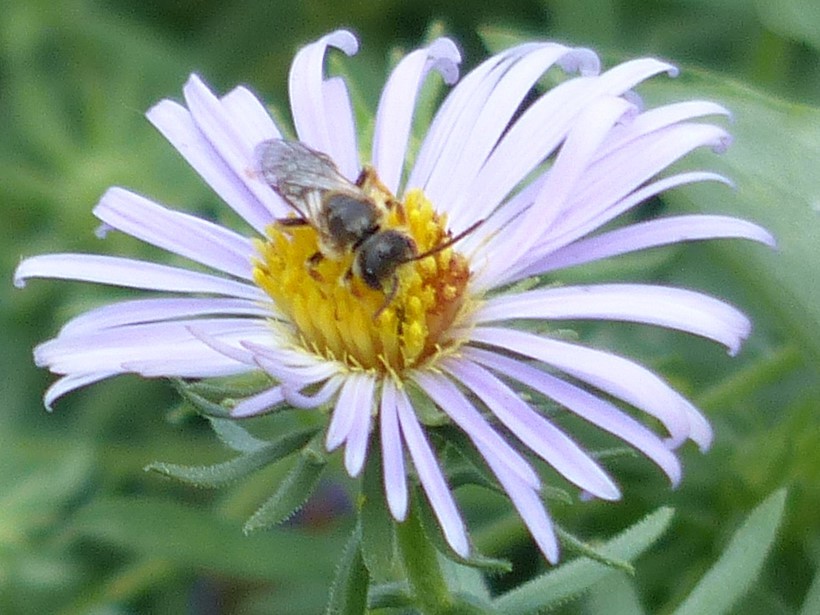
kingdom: Animalia
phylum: Arthropoda
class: Insecta
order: Hymenoptera
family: Halictidae
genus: Halictus
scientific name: Halictus ligatus
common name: Ligated furrow bee
